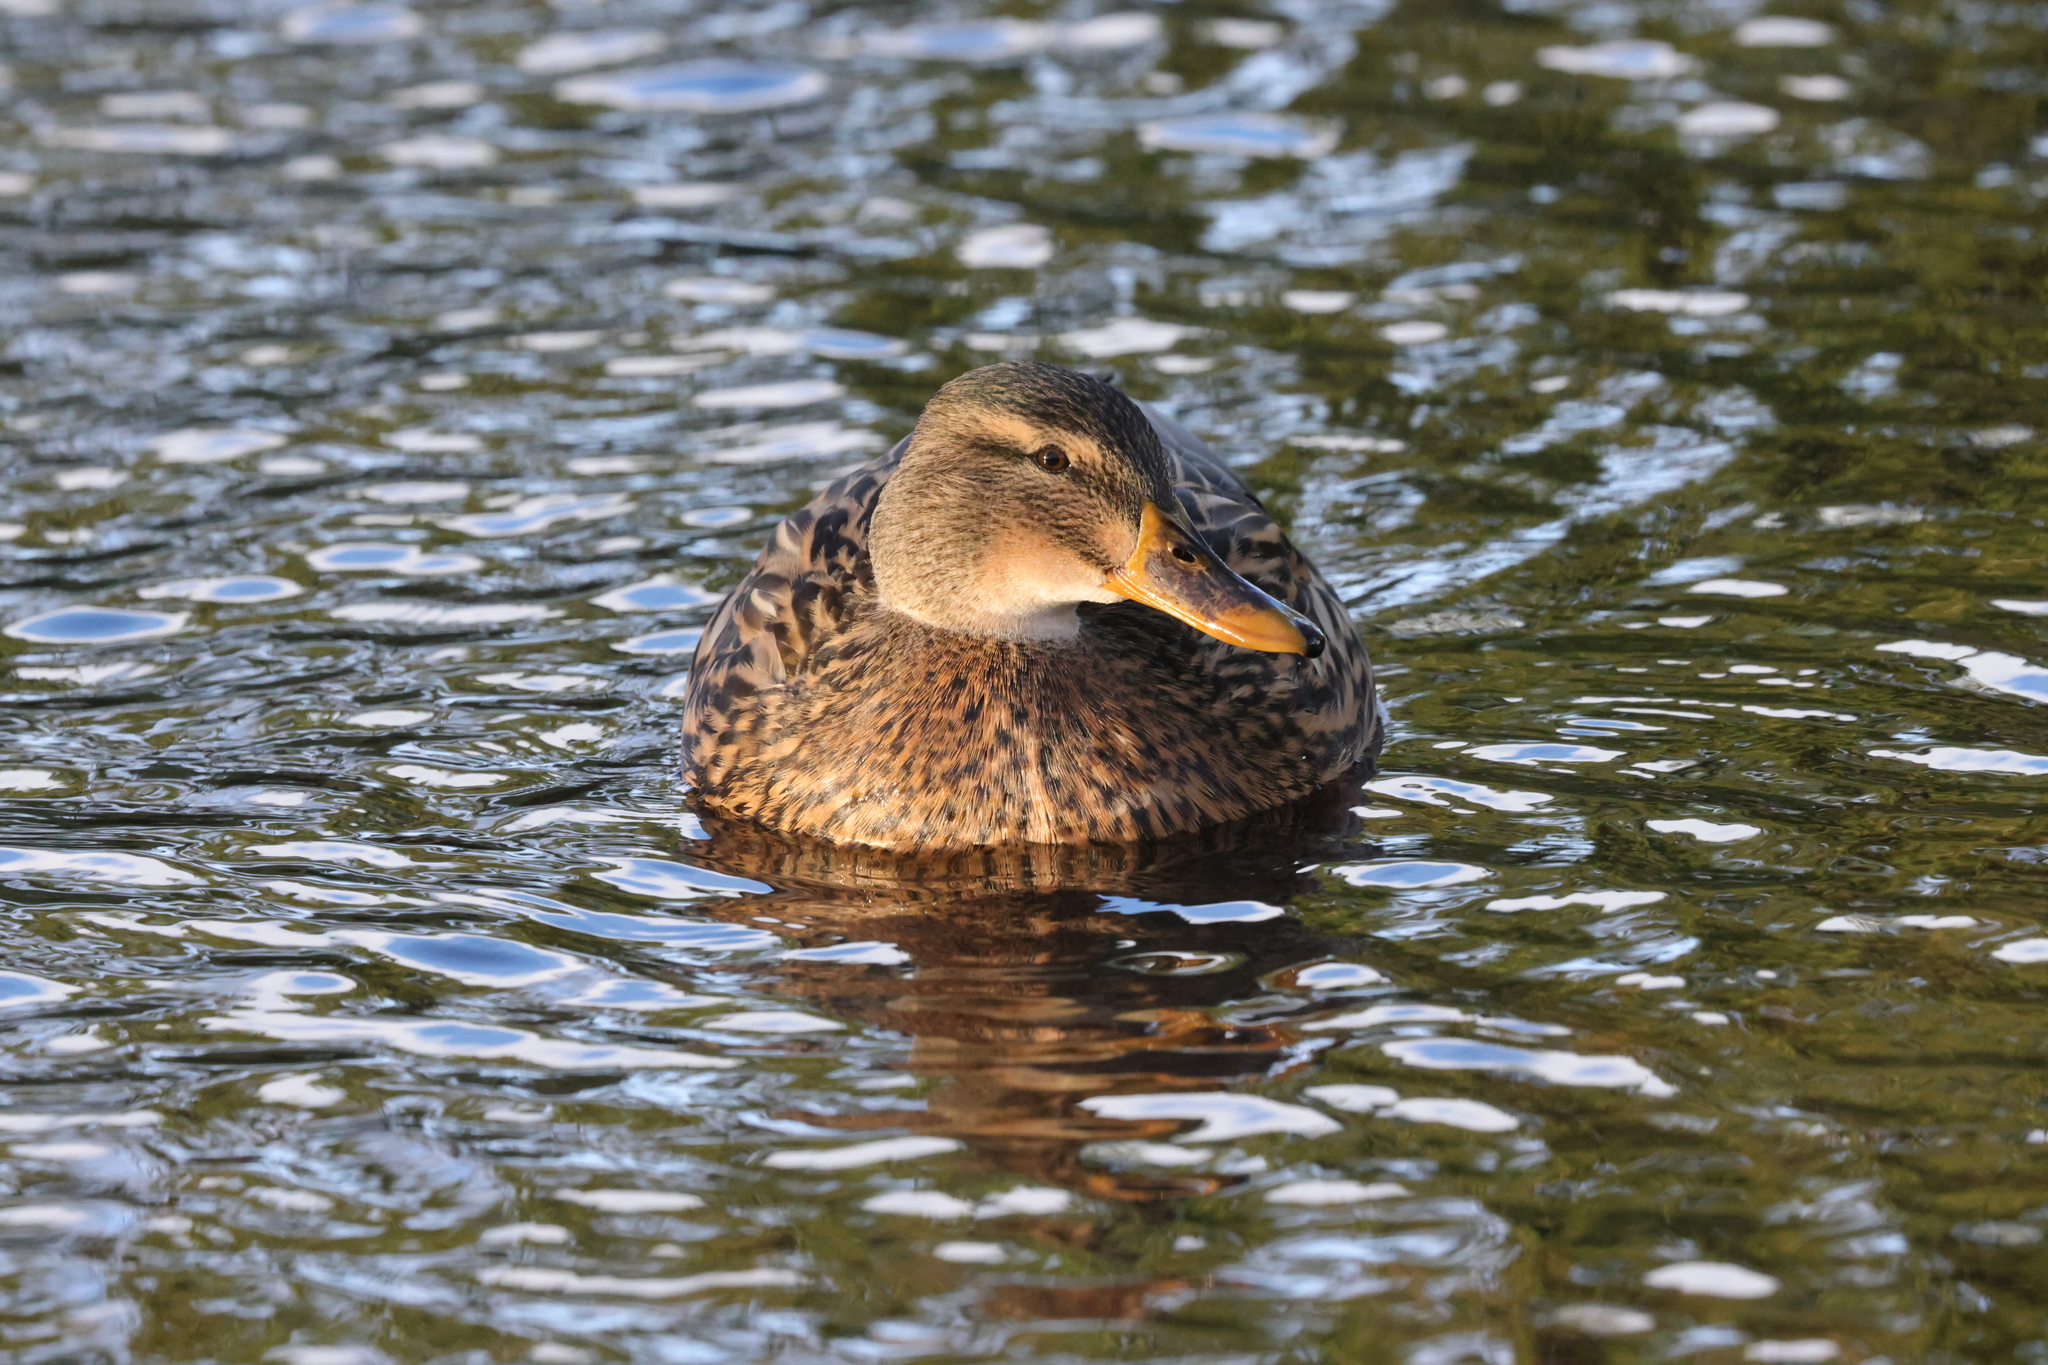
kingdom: Animalia
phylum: Chordata
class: Aves
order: Anseriformes
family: Anatidae
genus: Anas
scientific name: Anas platyrhynchos
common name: Mallard
